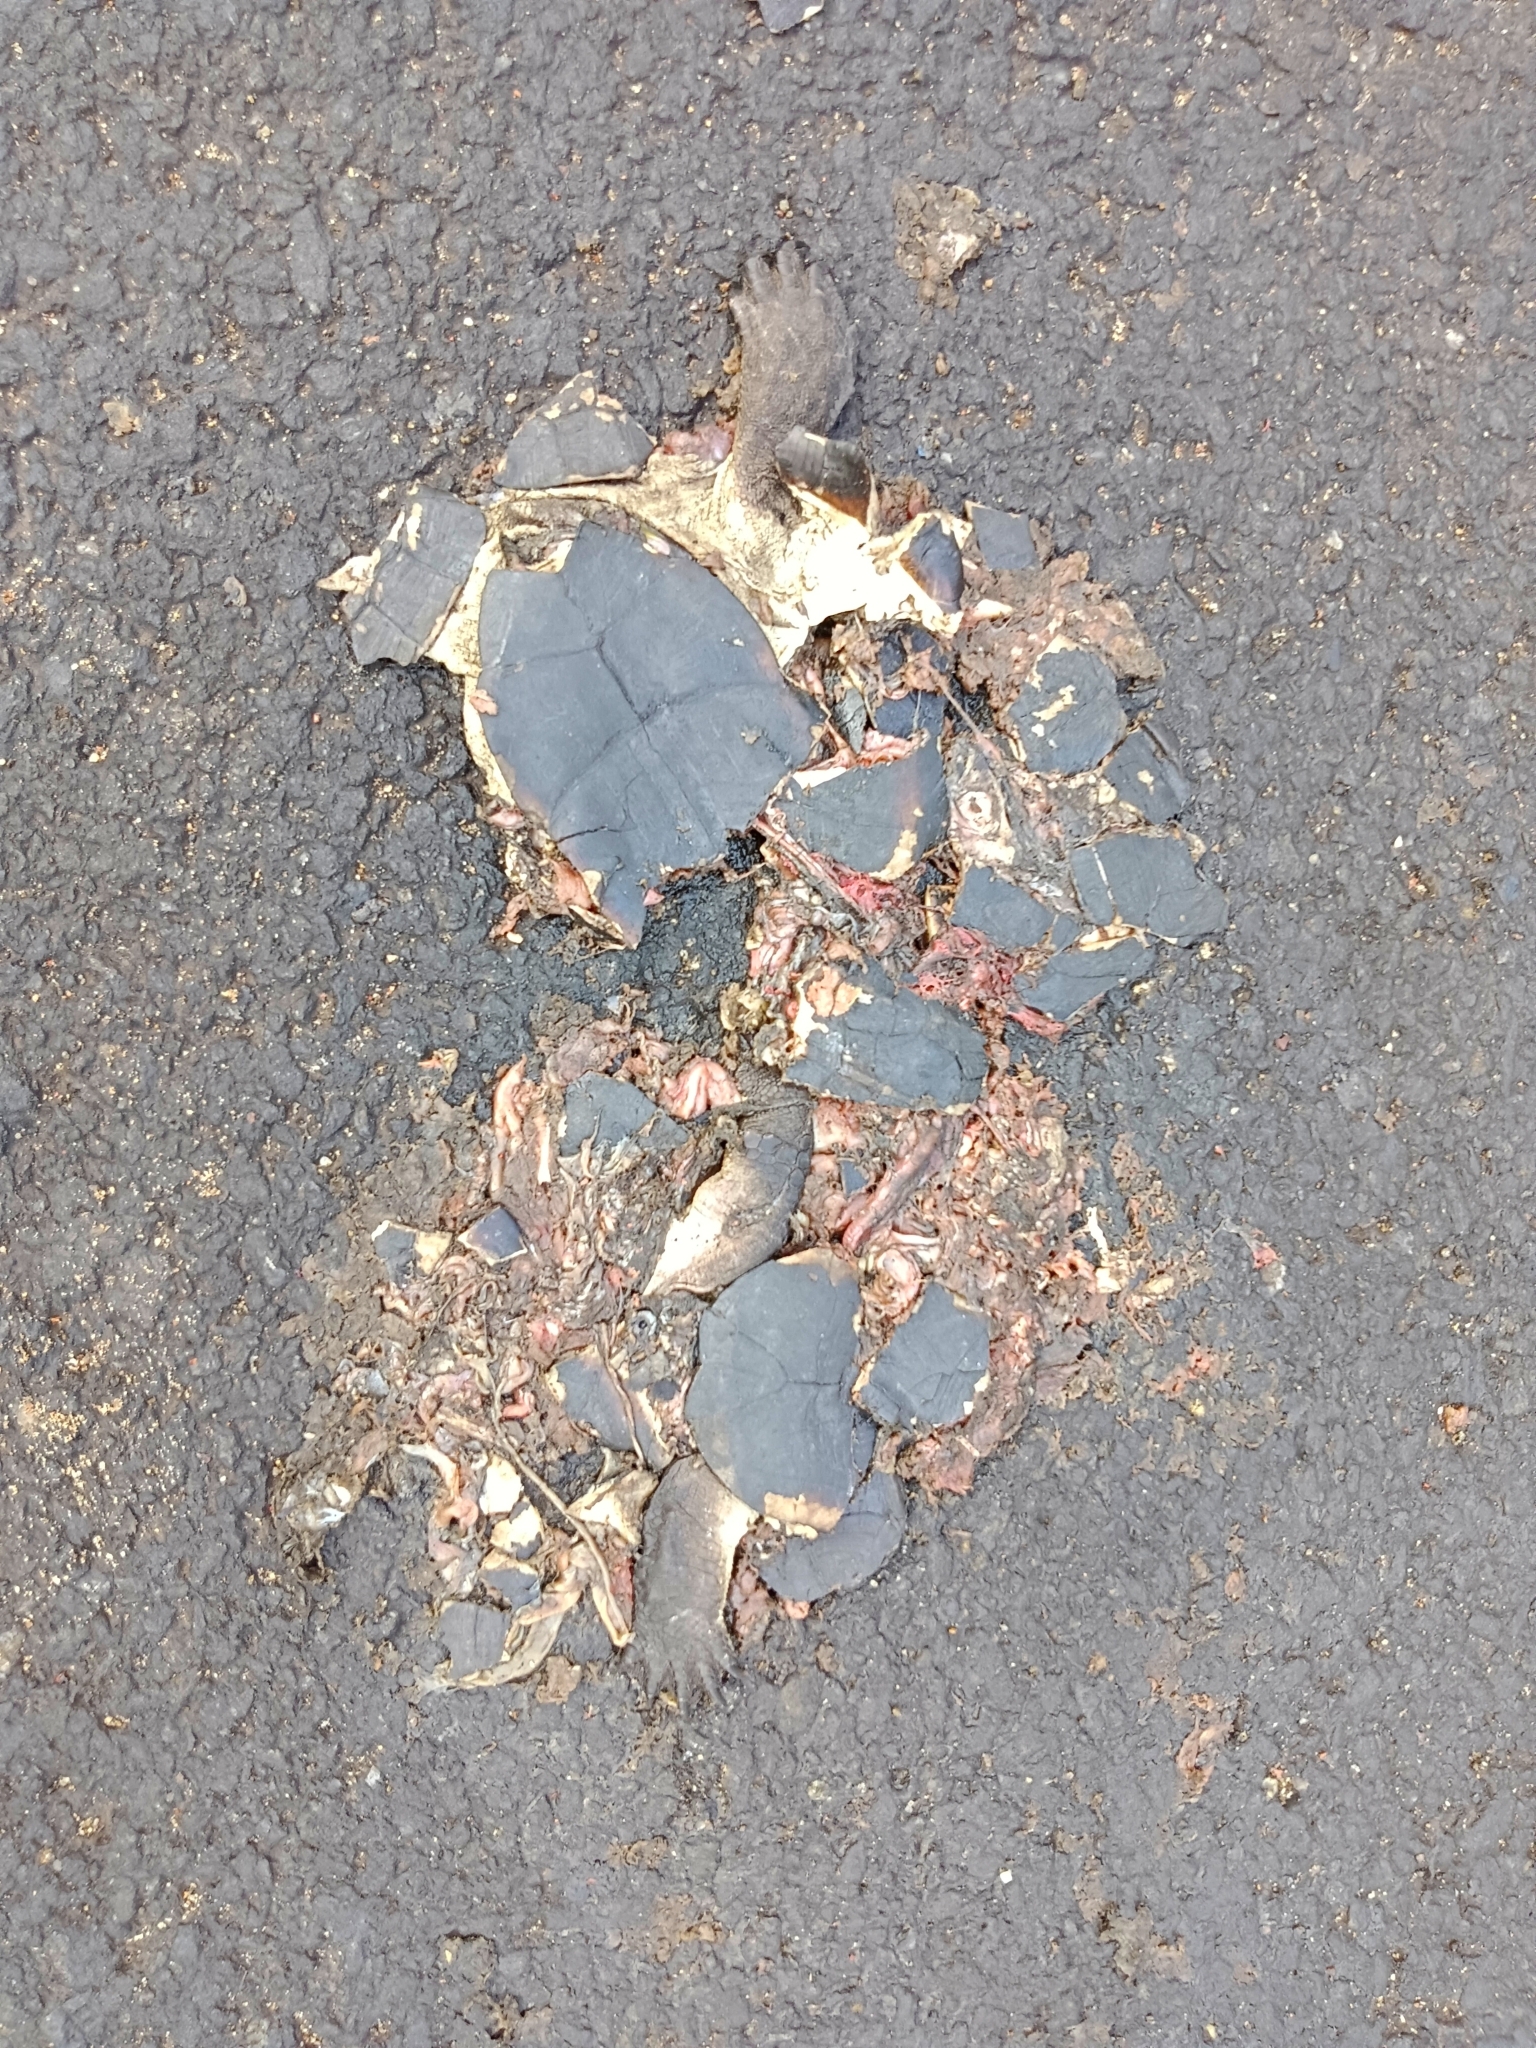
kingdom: Animalia
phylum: Chordata
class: Testudines
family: Geoemydidae
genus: Melanochelys
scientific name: Melanochelys trijuga
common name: Indian black turtle
